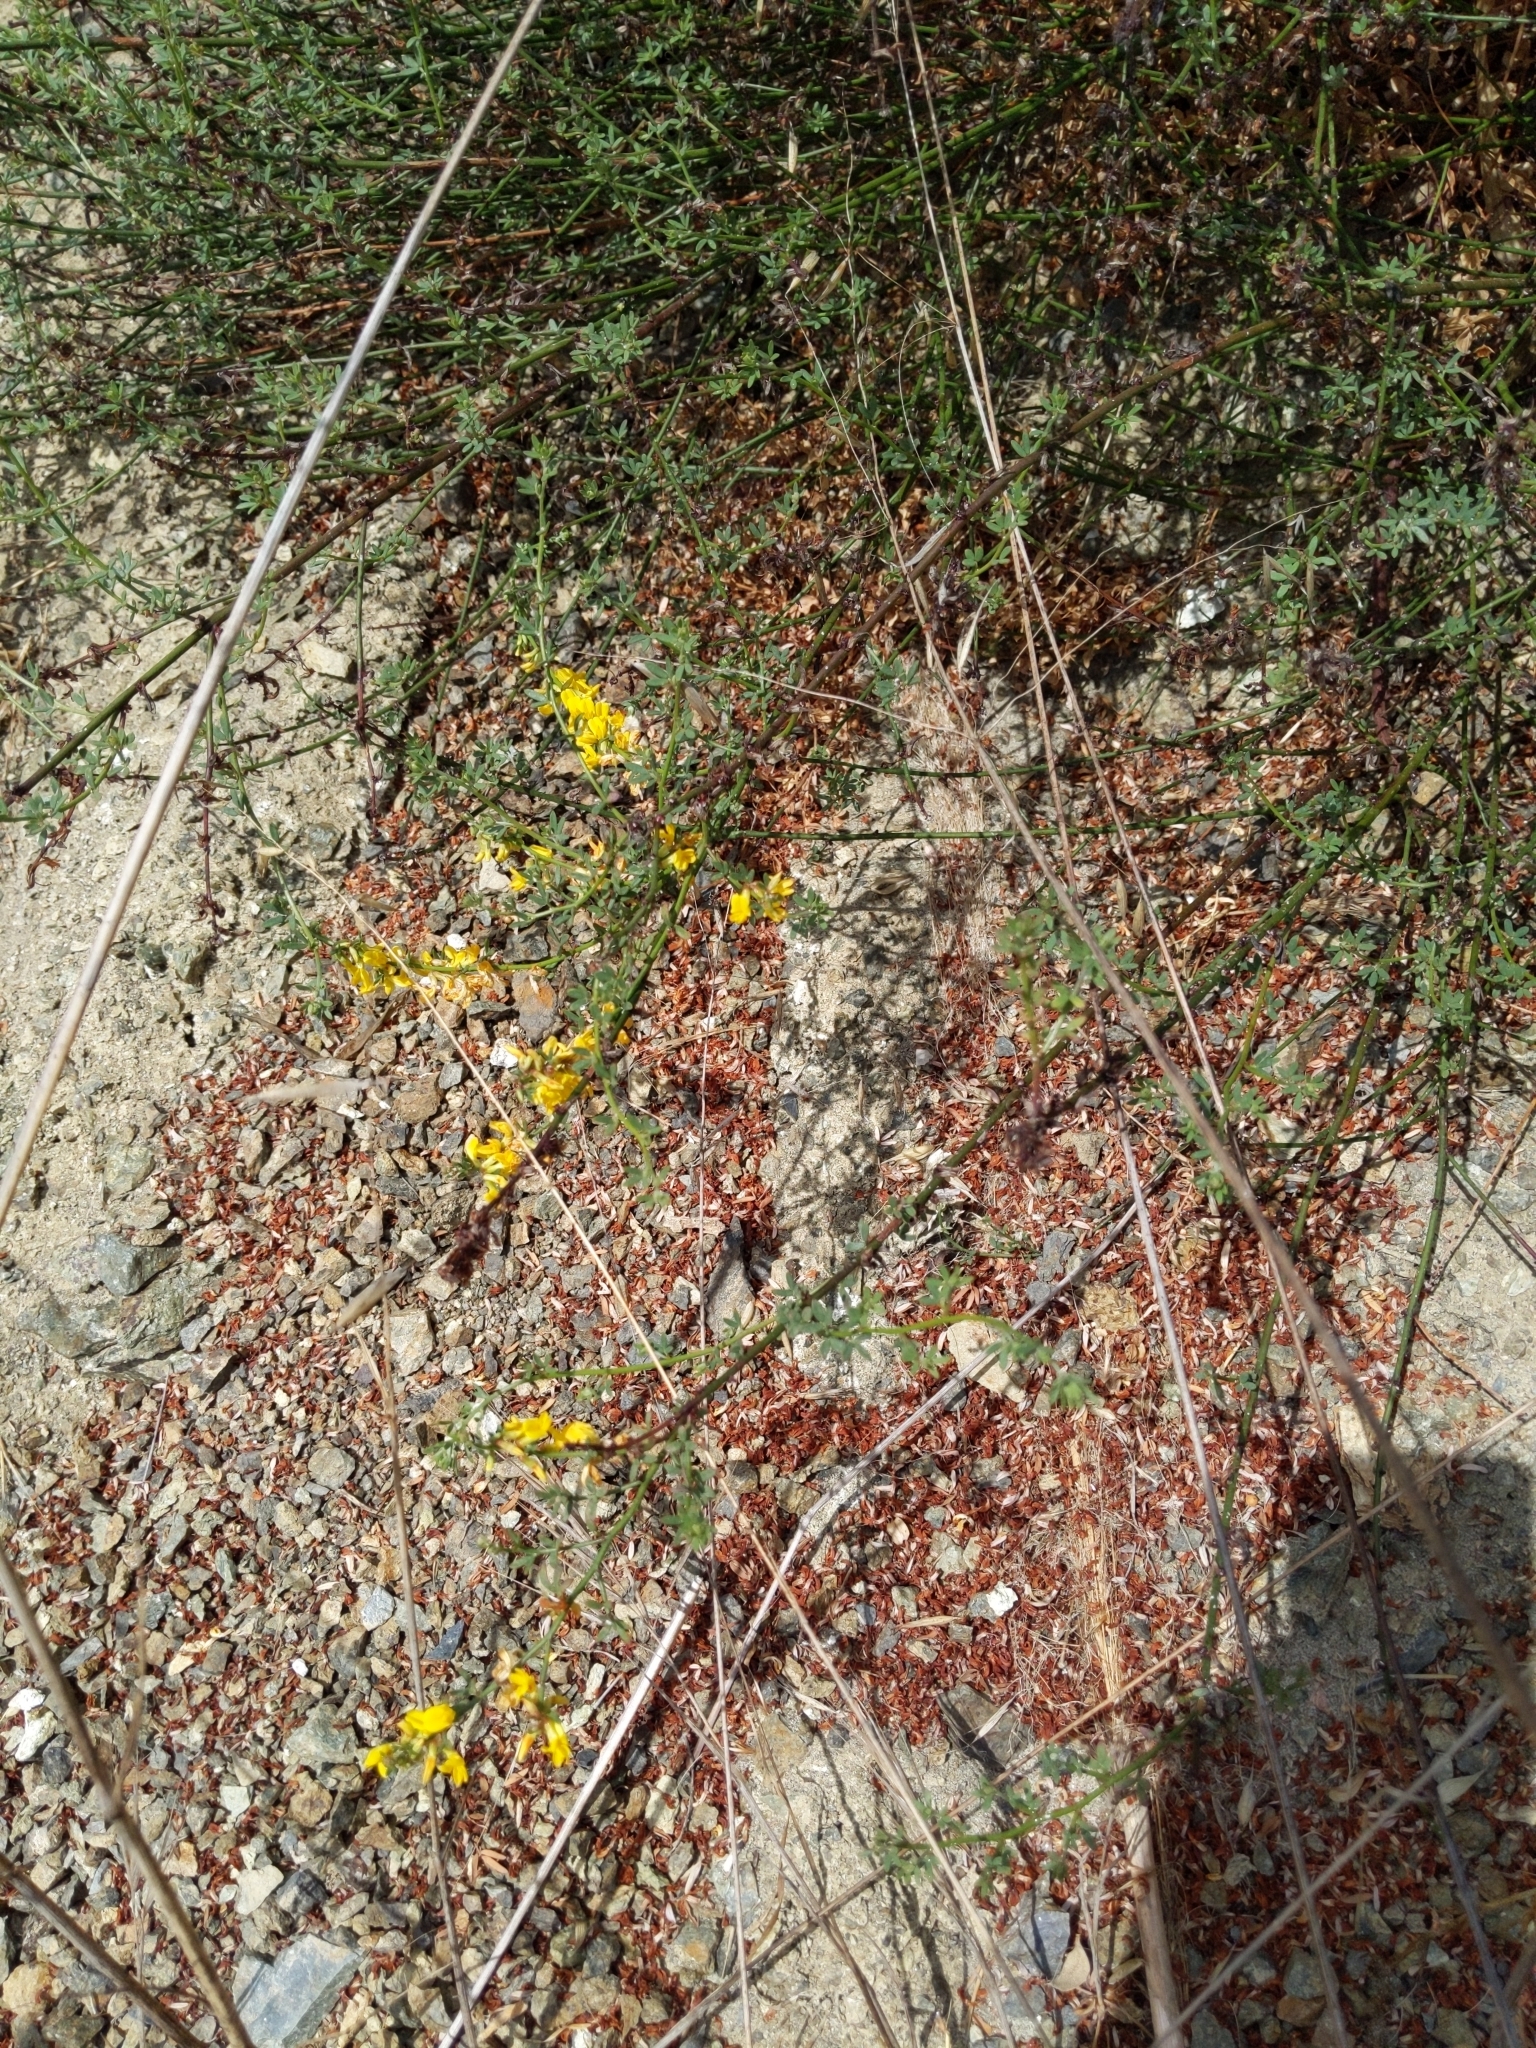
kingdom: Plantae
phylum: Tracheophyta
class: Magnoliopsida
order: Fabales
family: Fabaceae
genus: Acmispon
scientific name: Acmispon glaber
